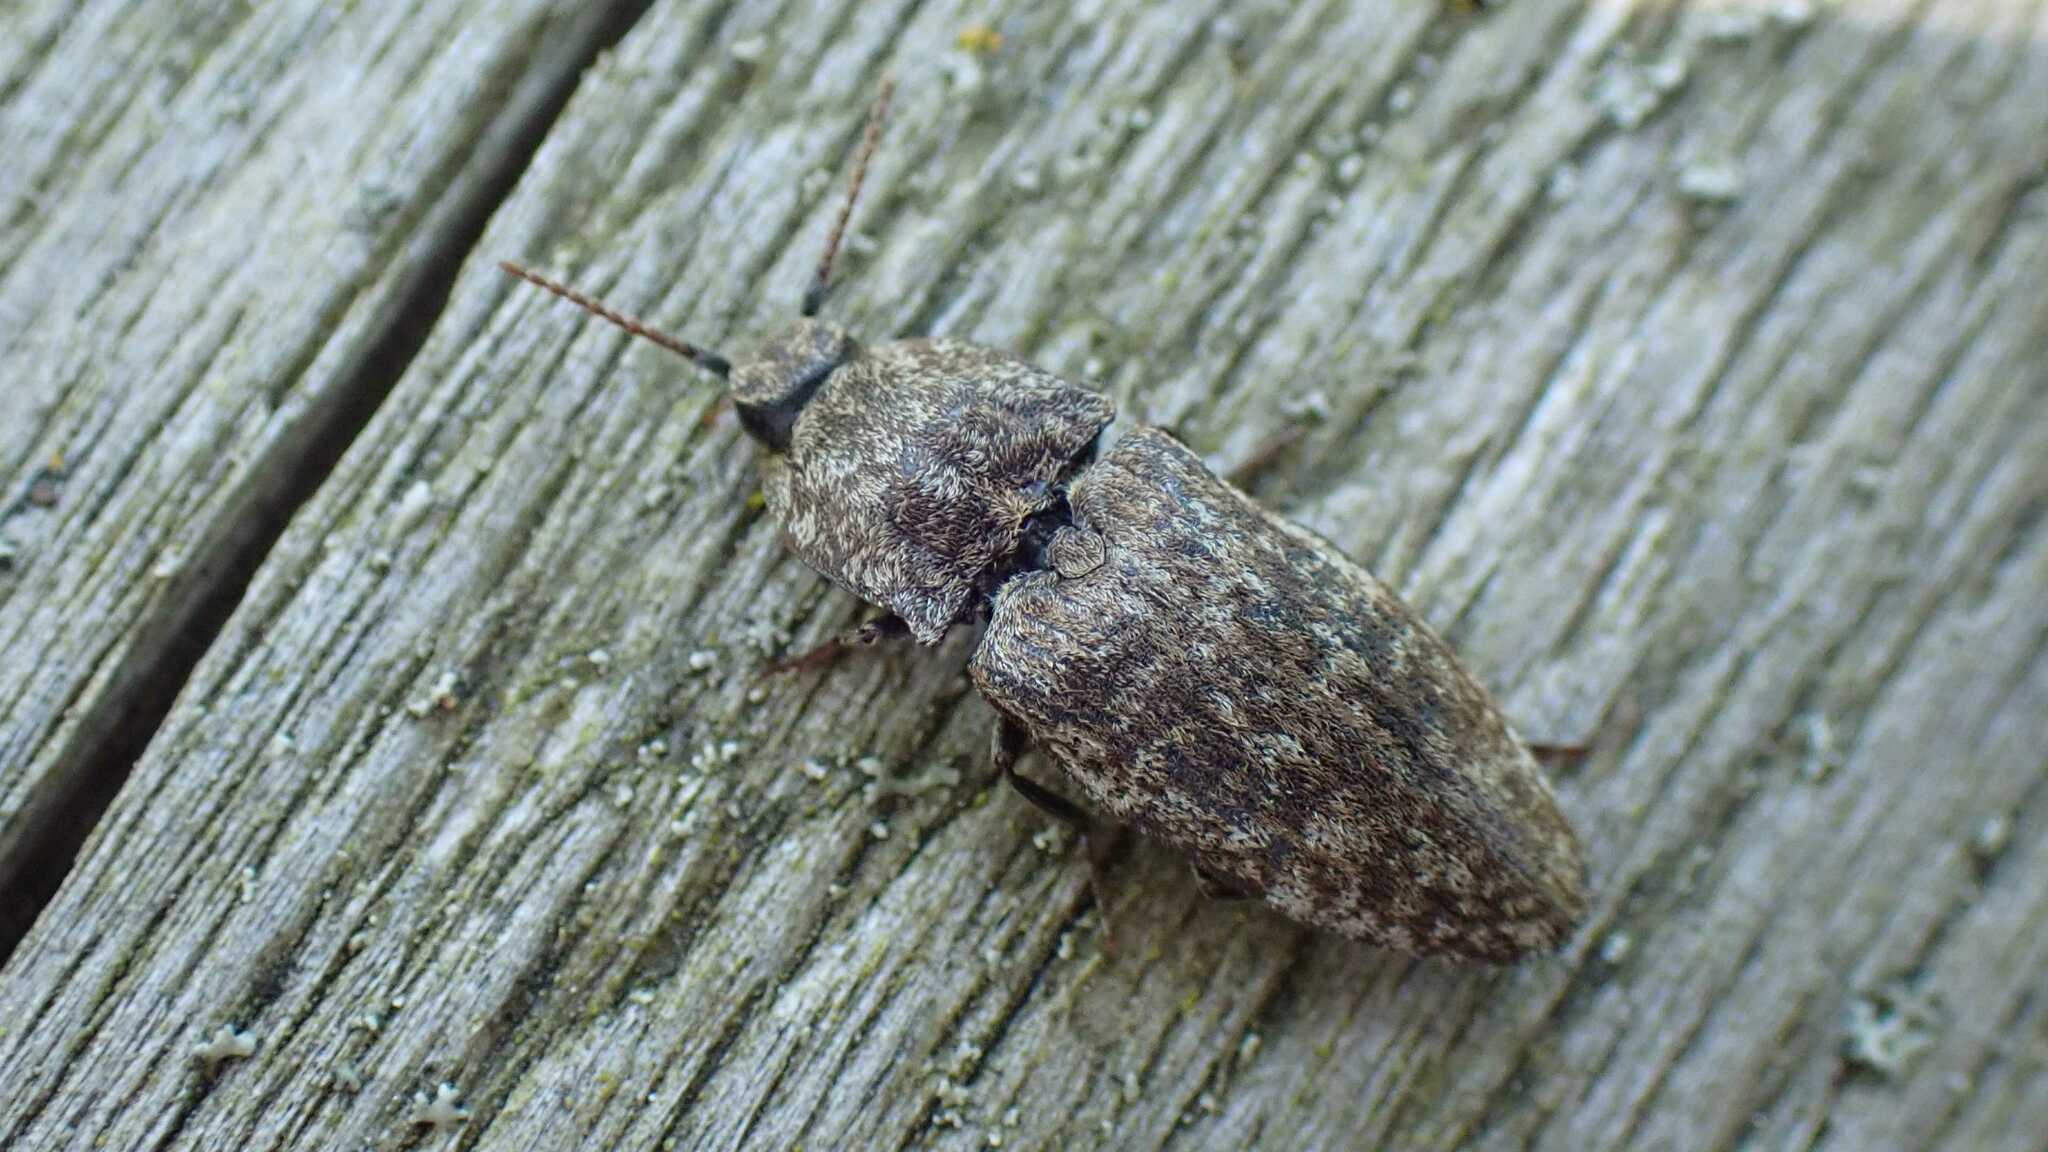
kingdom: Animalia
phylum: Arthropoda
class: Insecta
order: Coleoptera
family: Elateridae
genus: Agrypnus
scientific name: Agrypnus murinus
